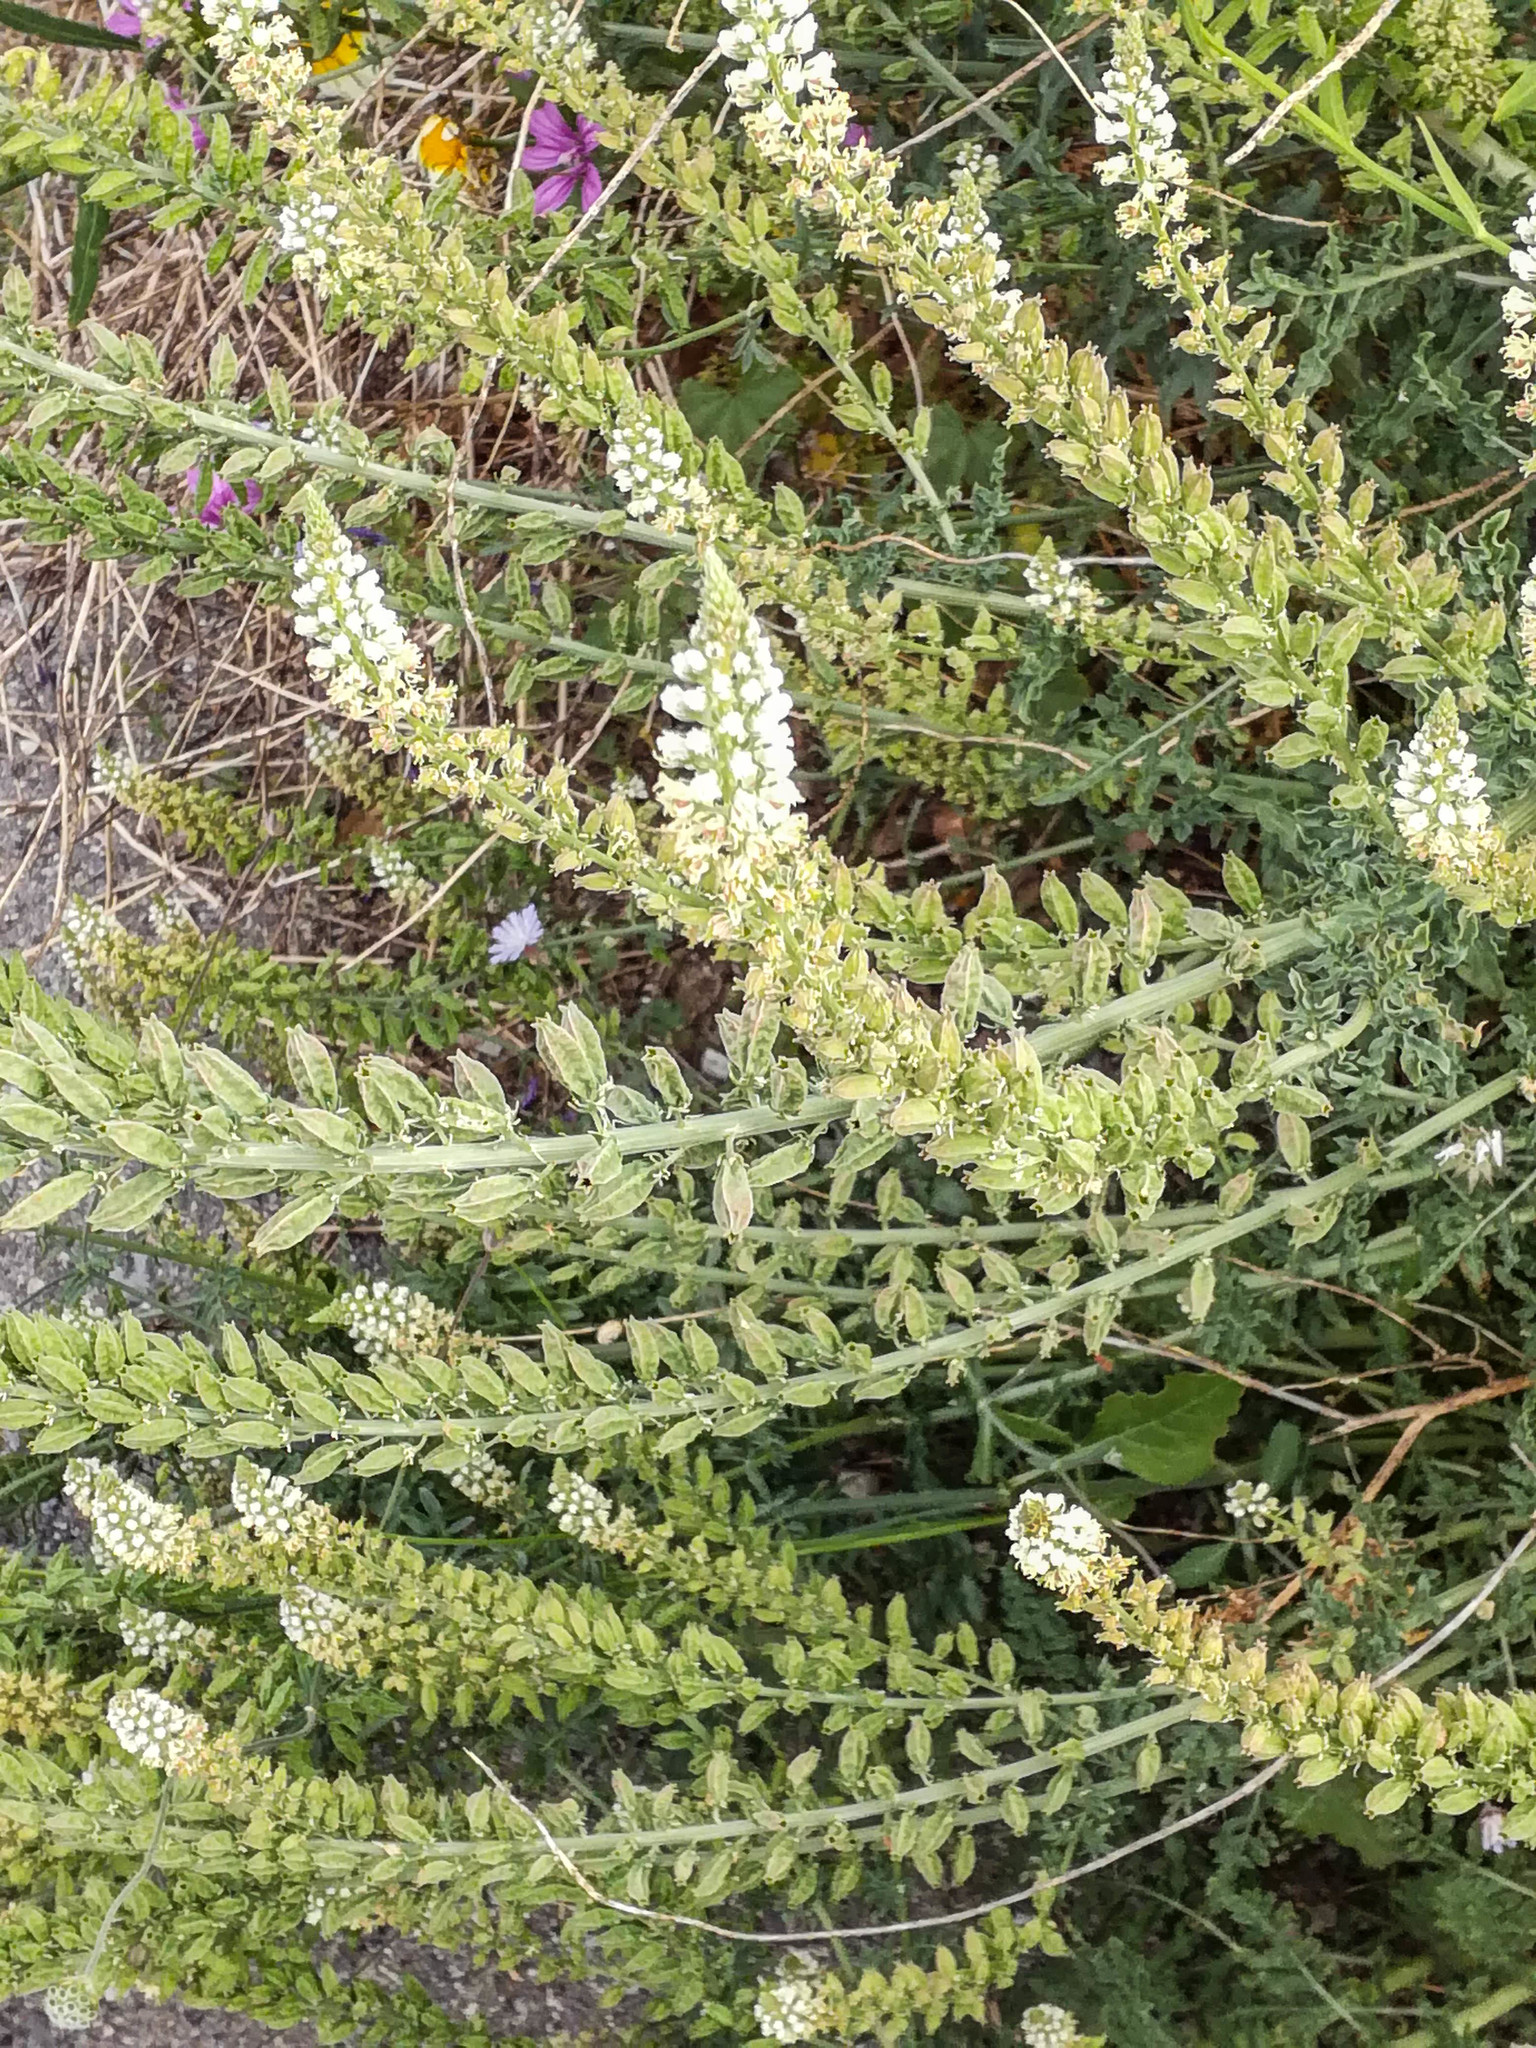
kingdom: Plantae
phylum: Tracheophyta
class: Magnoliopsida
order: Brassicales
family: Resedaceae
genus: Reseda
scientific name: Reseda alba
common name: White mignonette
